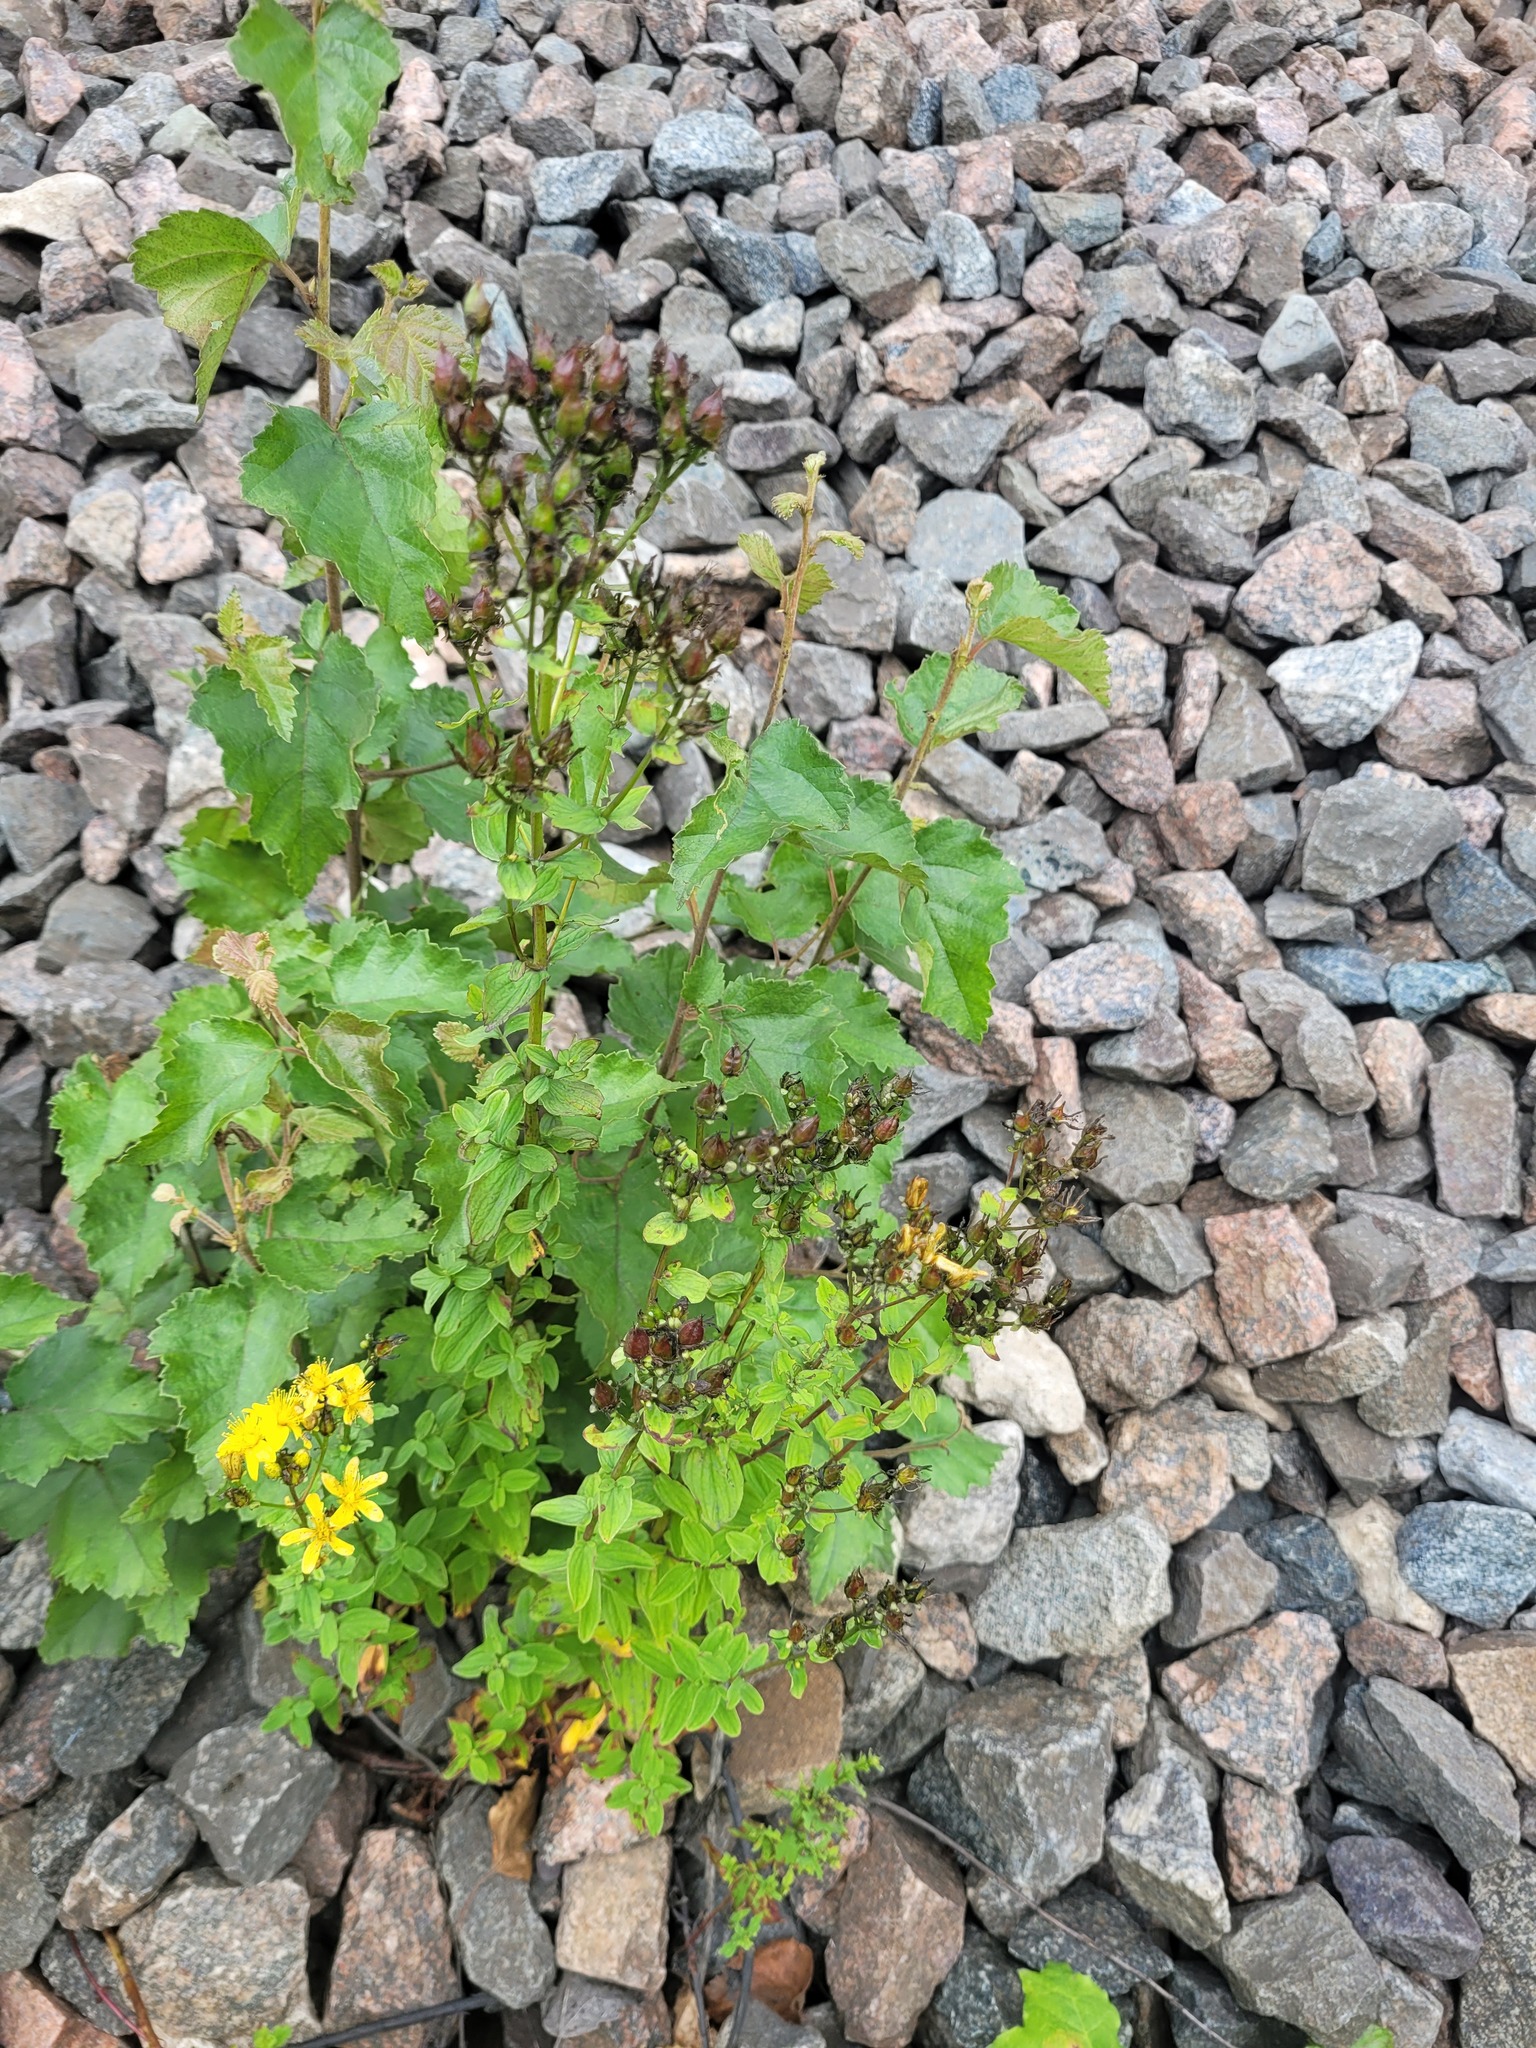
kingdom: Plantae
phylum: Tracheophyta
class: Magnoliopsida
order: Fagales
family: Betulaceae
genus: Betula
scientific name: Betula pubescens
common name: Downy birch
